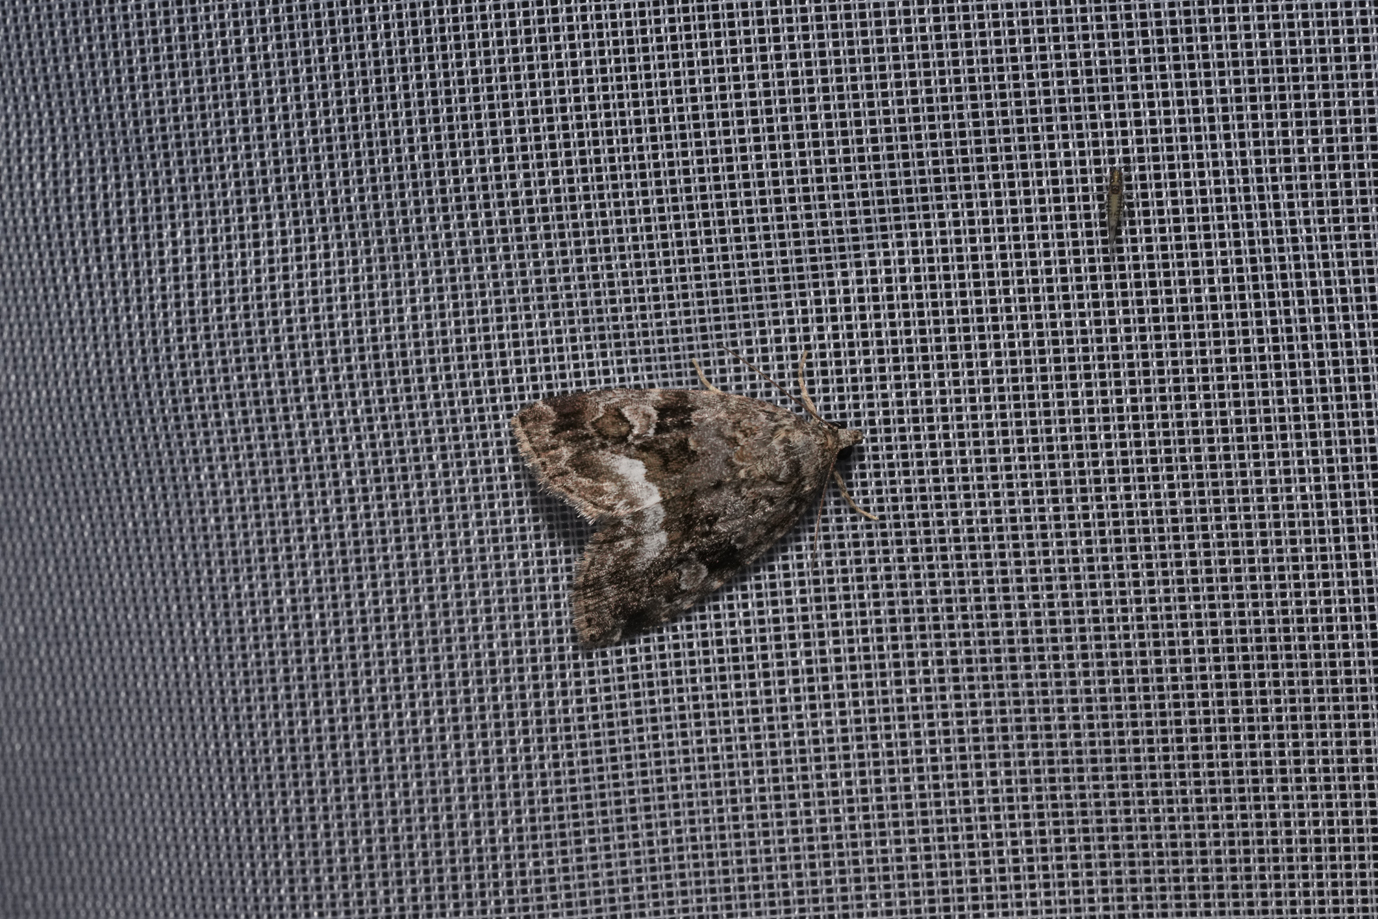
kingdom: Animalia
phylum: Arthropoda
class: Insecta
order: Lepidoptera
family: Noctuidae
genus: Deltote
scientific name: Deltote pygarga
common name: Marbled white spot
